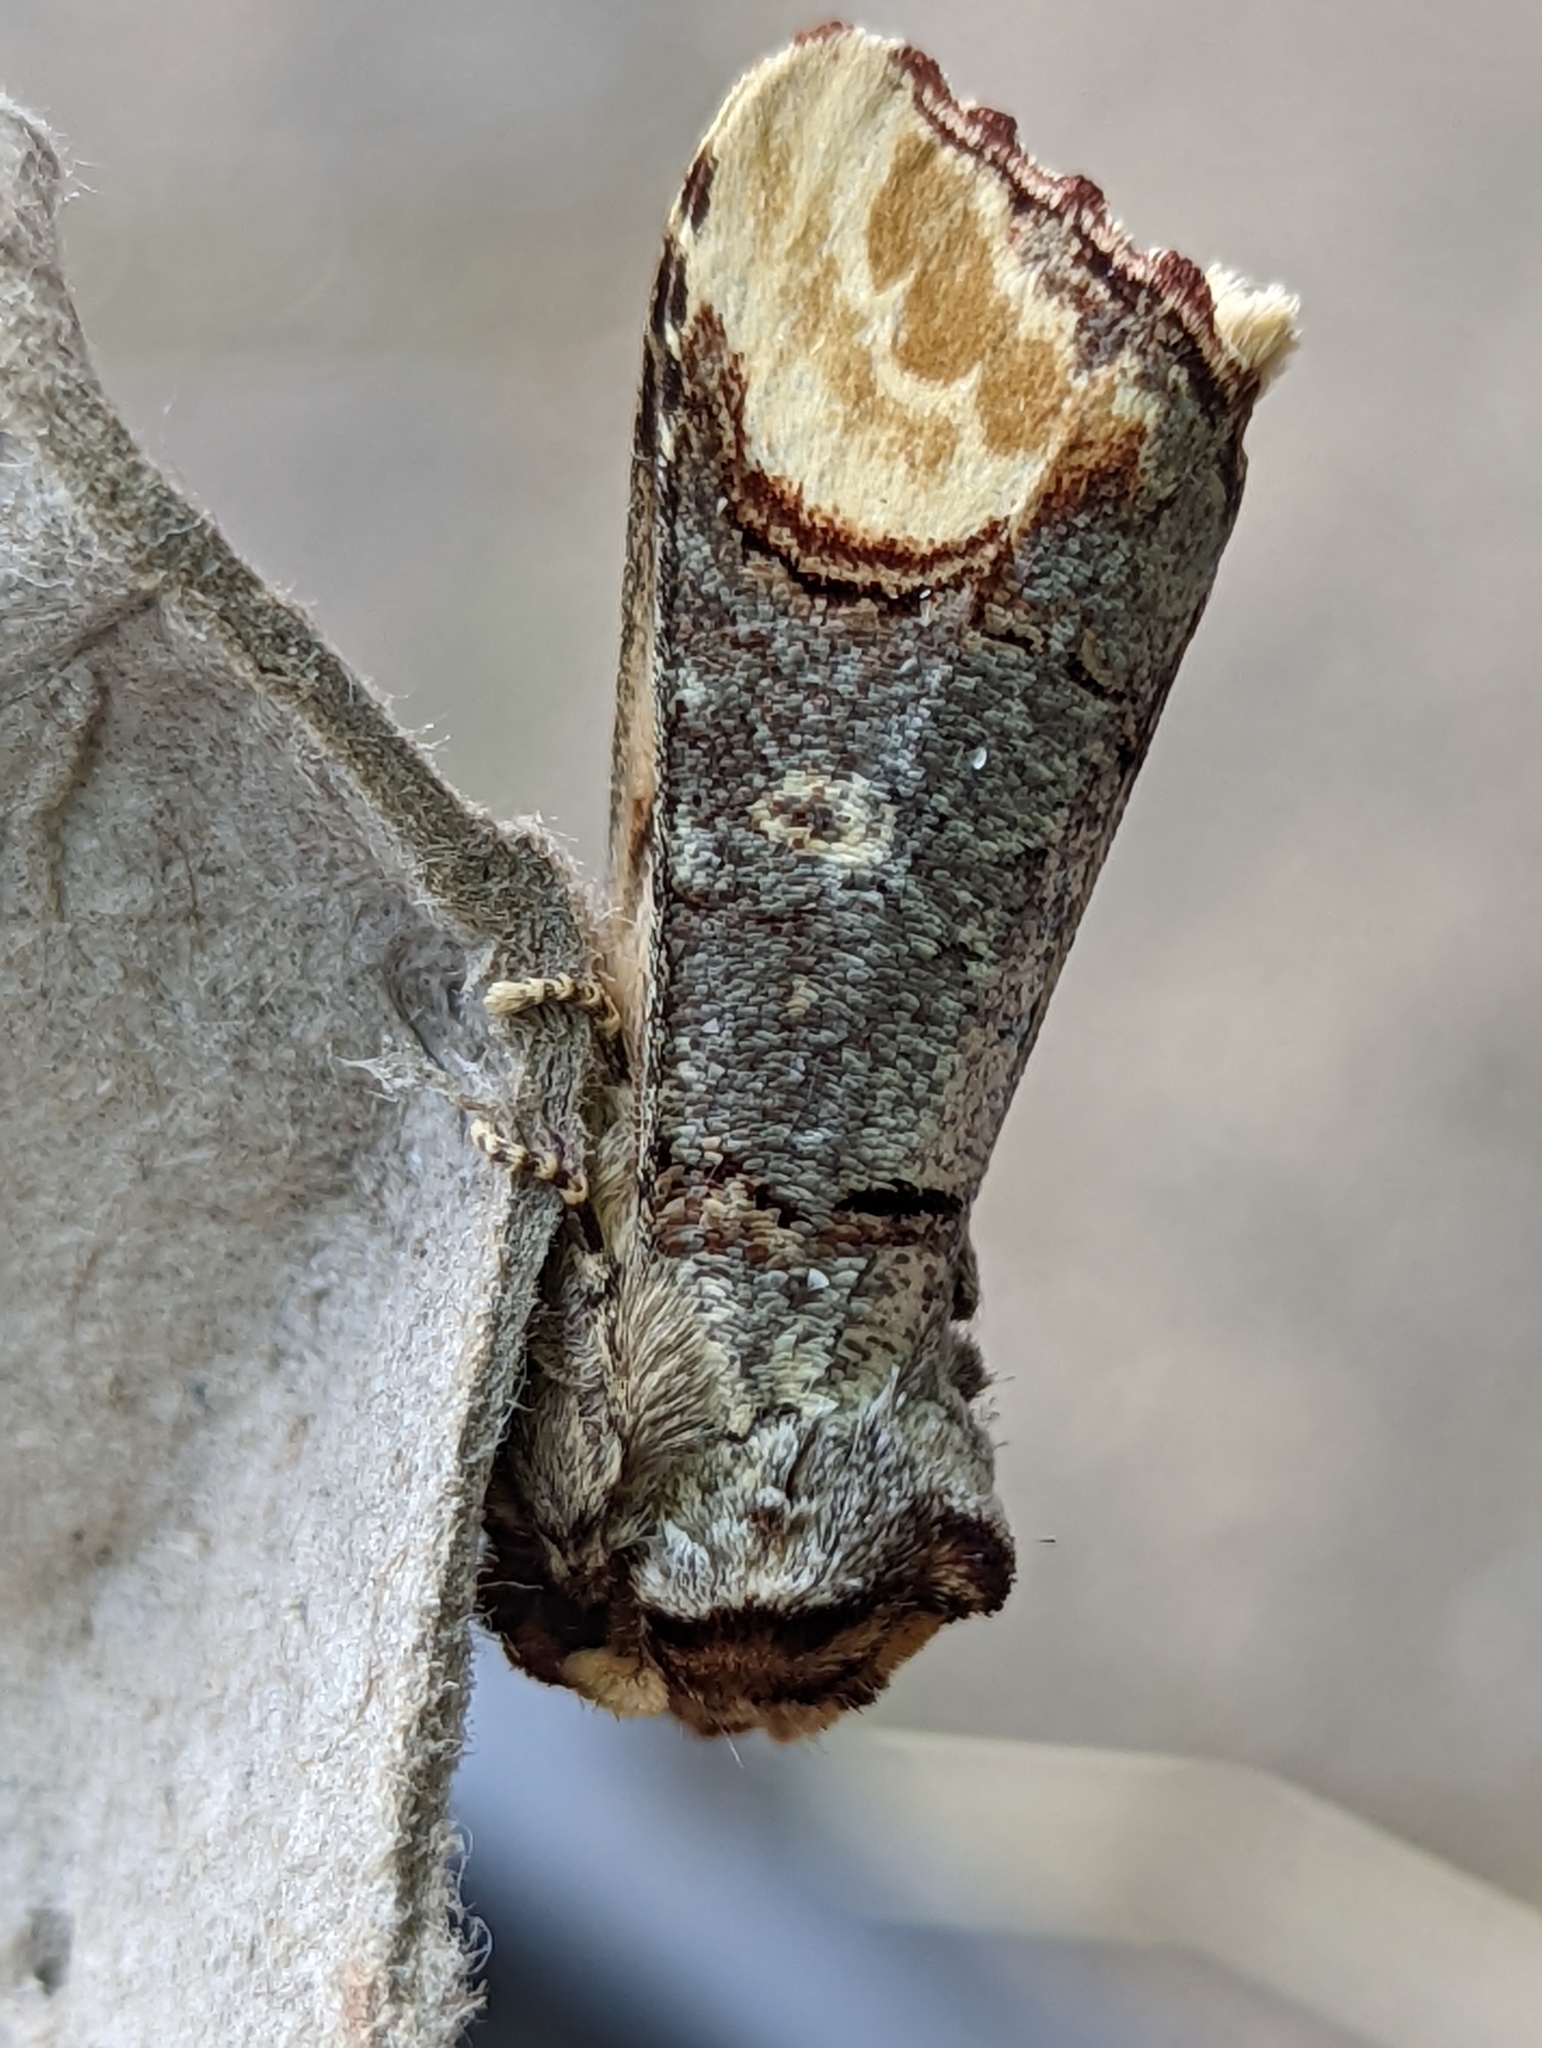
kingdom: Animalia
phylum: Arthropoda
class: Insecta
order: Lepidoptera
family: Notodontidae
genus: Phalera
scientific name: Phalera bucephala
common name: Buff-tip
